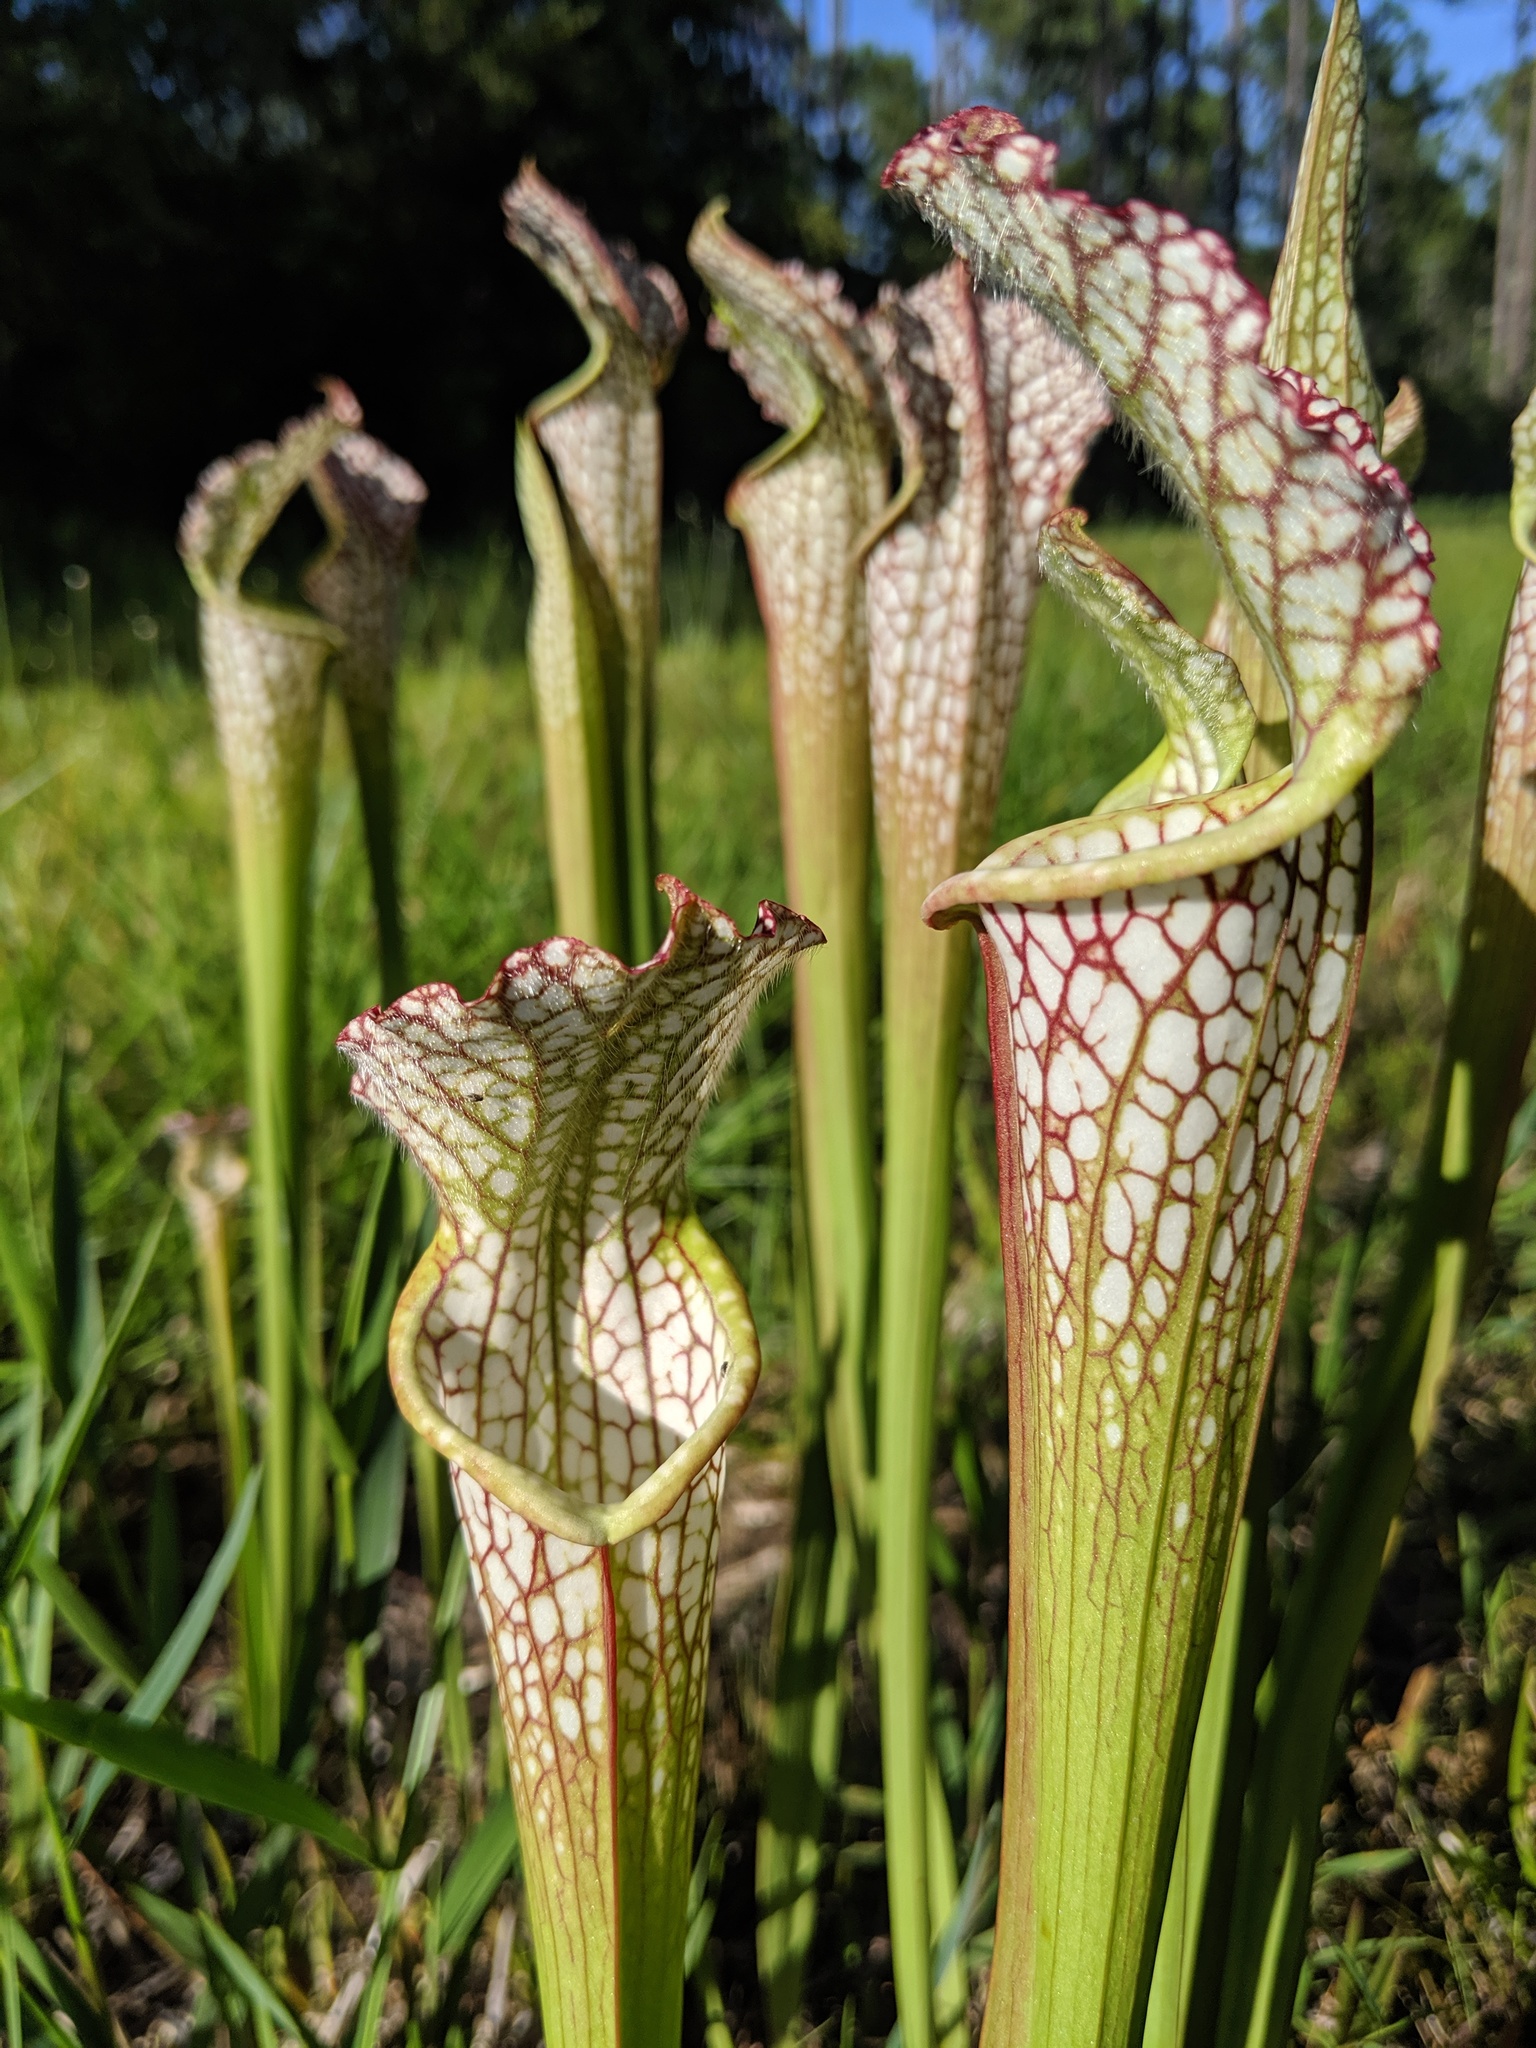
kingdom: Plantae
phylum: Tracheophyta
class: Magnoliopsida
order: Ericales
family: Sarraceniaceae
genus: Sarracenia
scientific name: Sarracenia leucophylla
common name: Purple trumpetleaf
